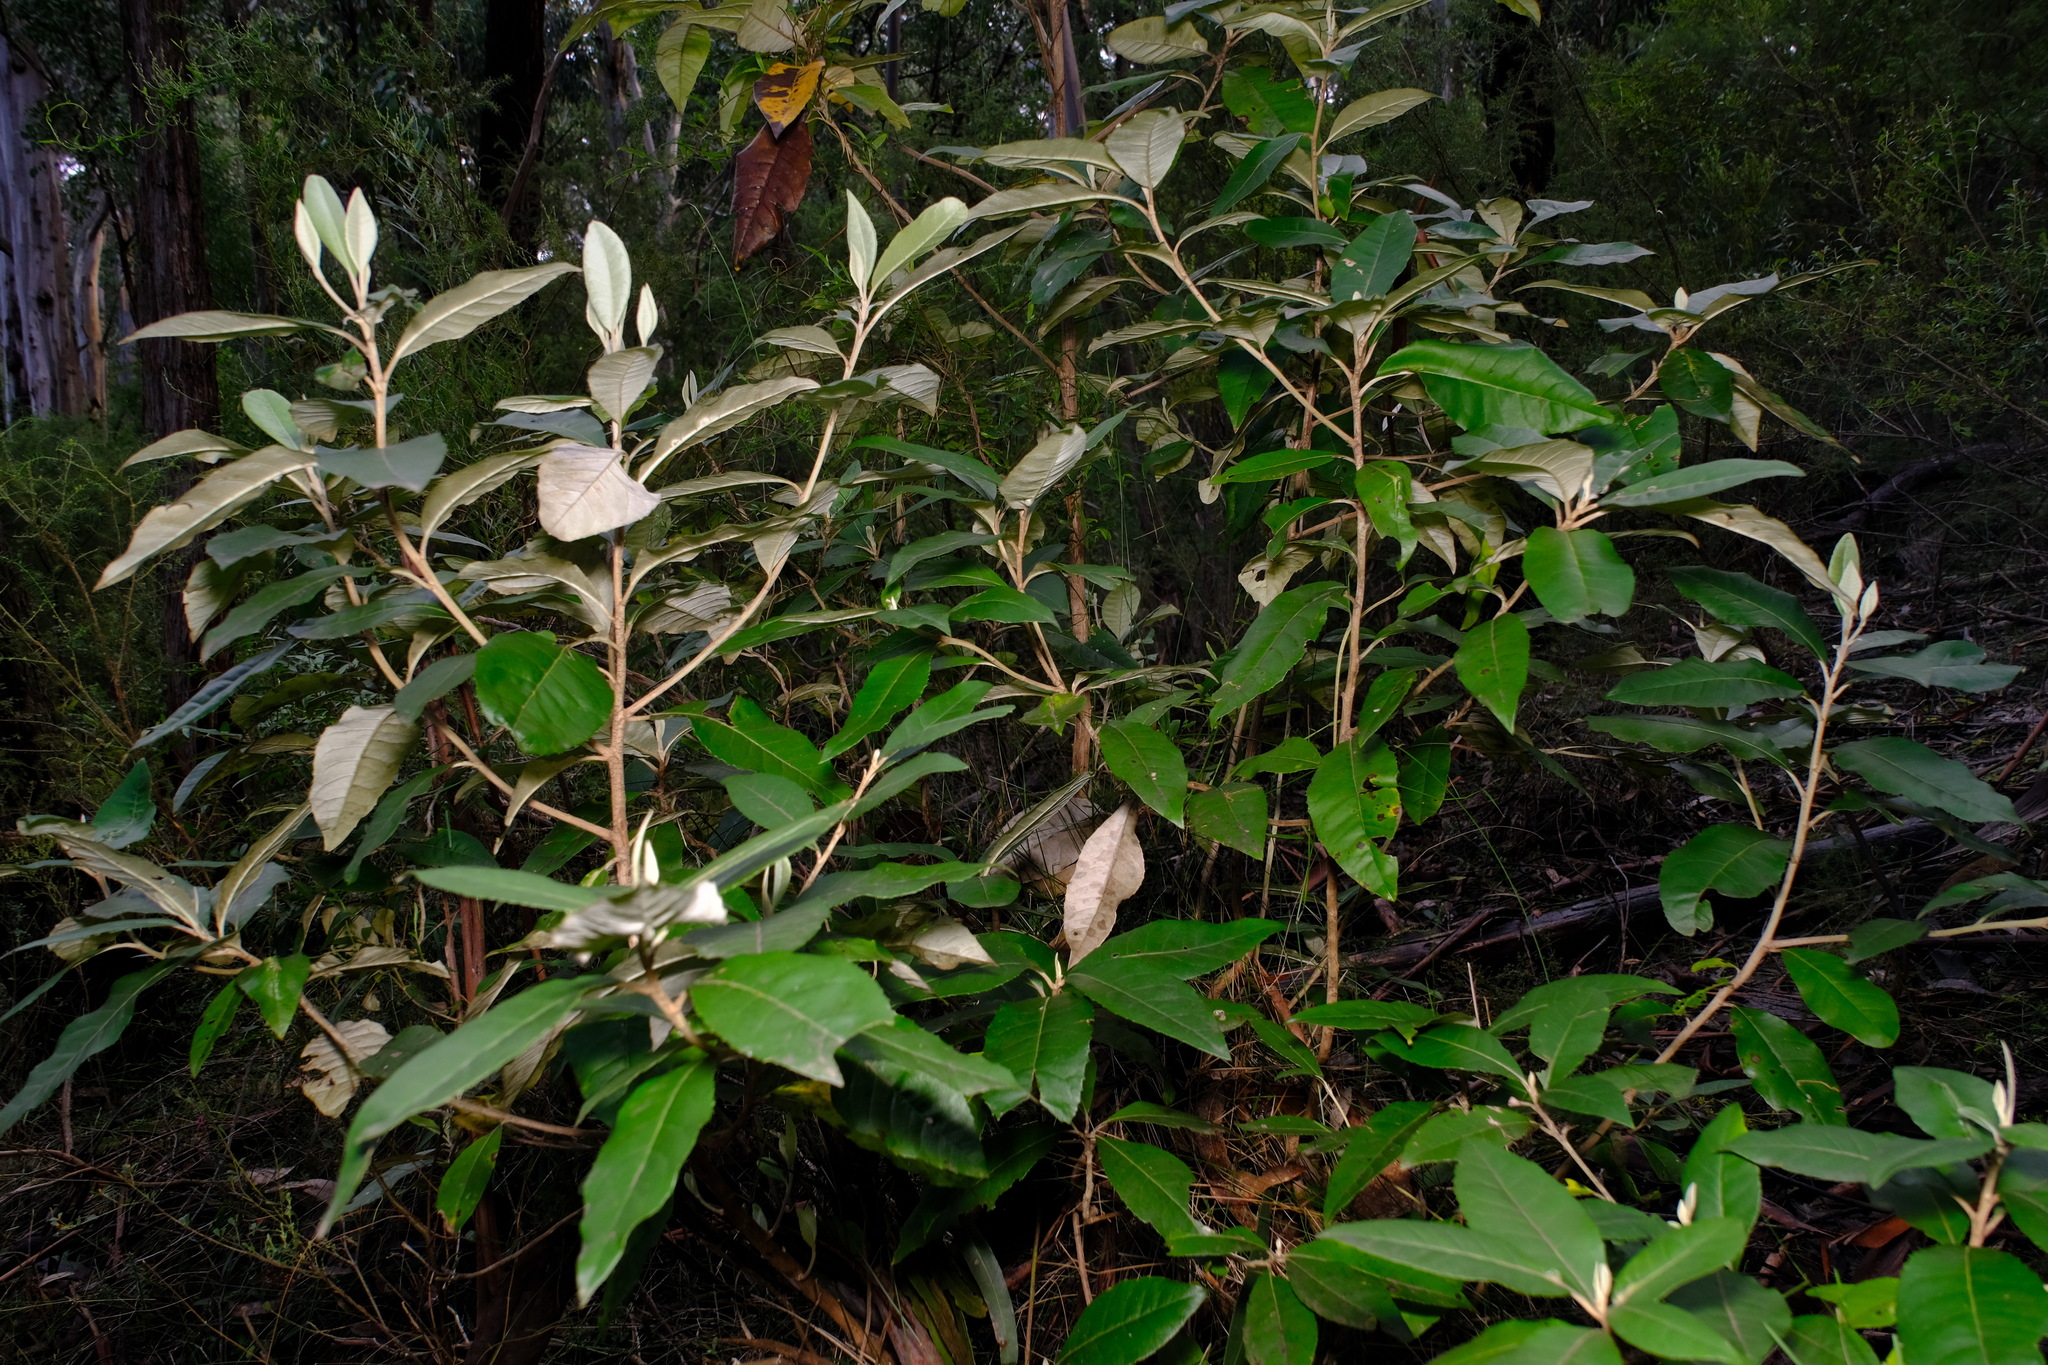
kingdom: Plantae
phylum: Tracheophyta
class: Magnoliopsida
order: Asterales
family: Asteraceae
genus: Olearia
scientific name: Olearia argophylla
